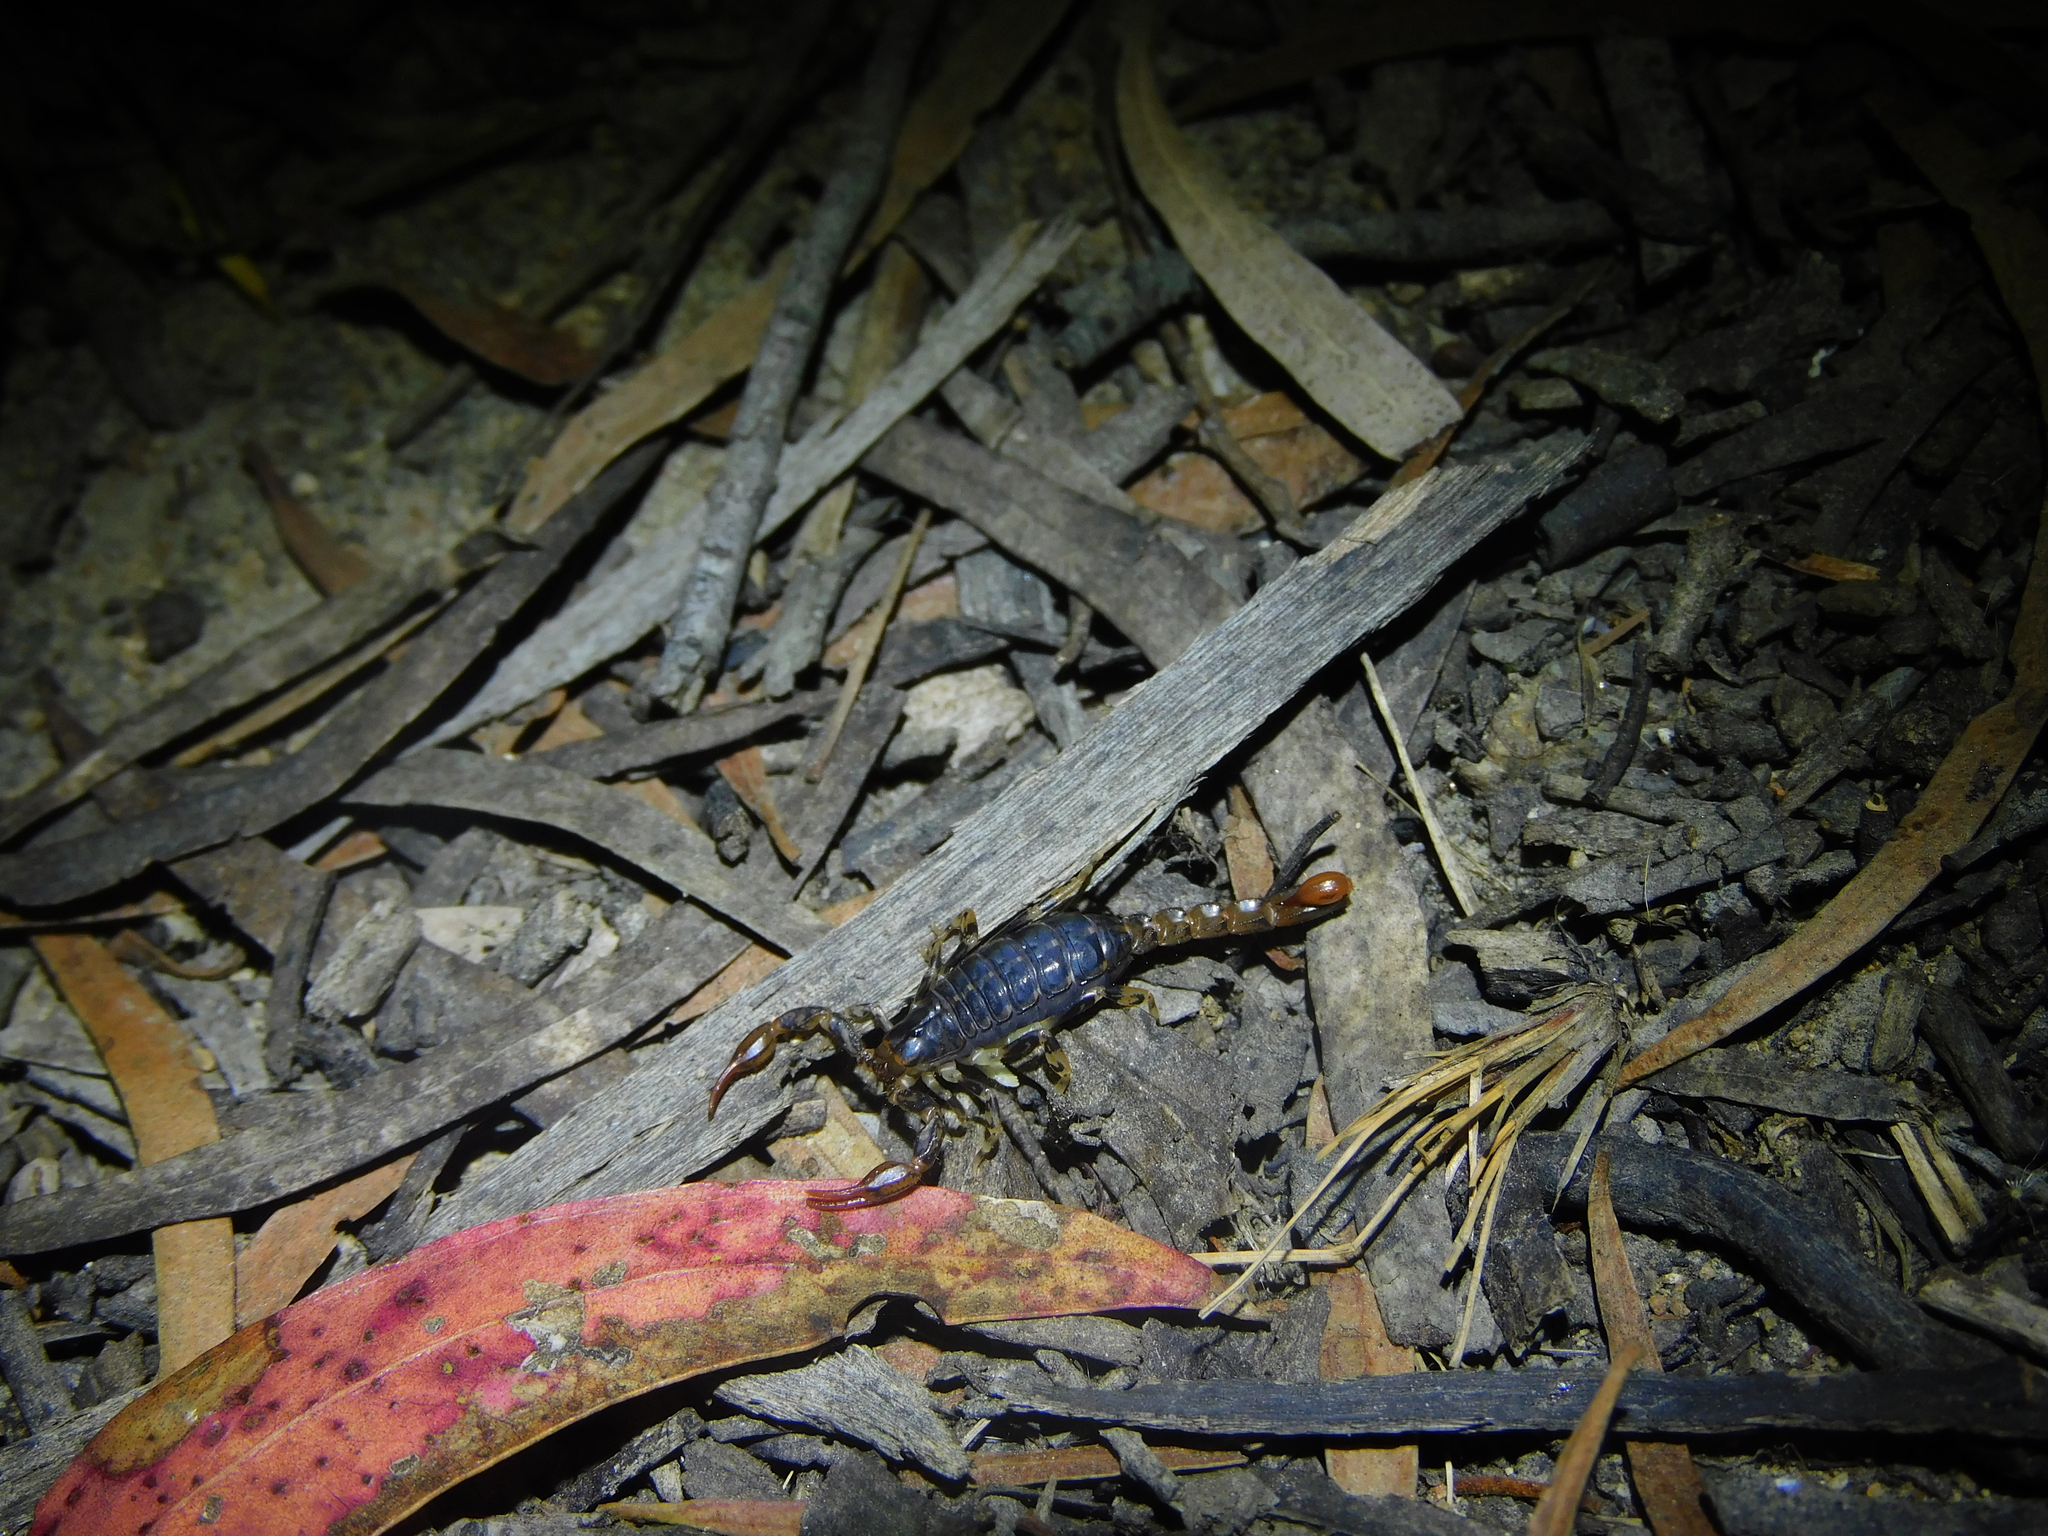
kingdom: Animalia
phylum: Arthropoda
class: Arachnida
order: Scorpiones
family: Bothriuridae
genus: Cercophonius
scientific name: Cercophonius squama
